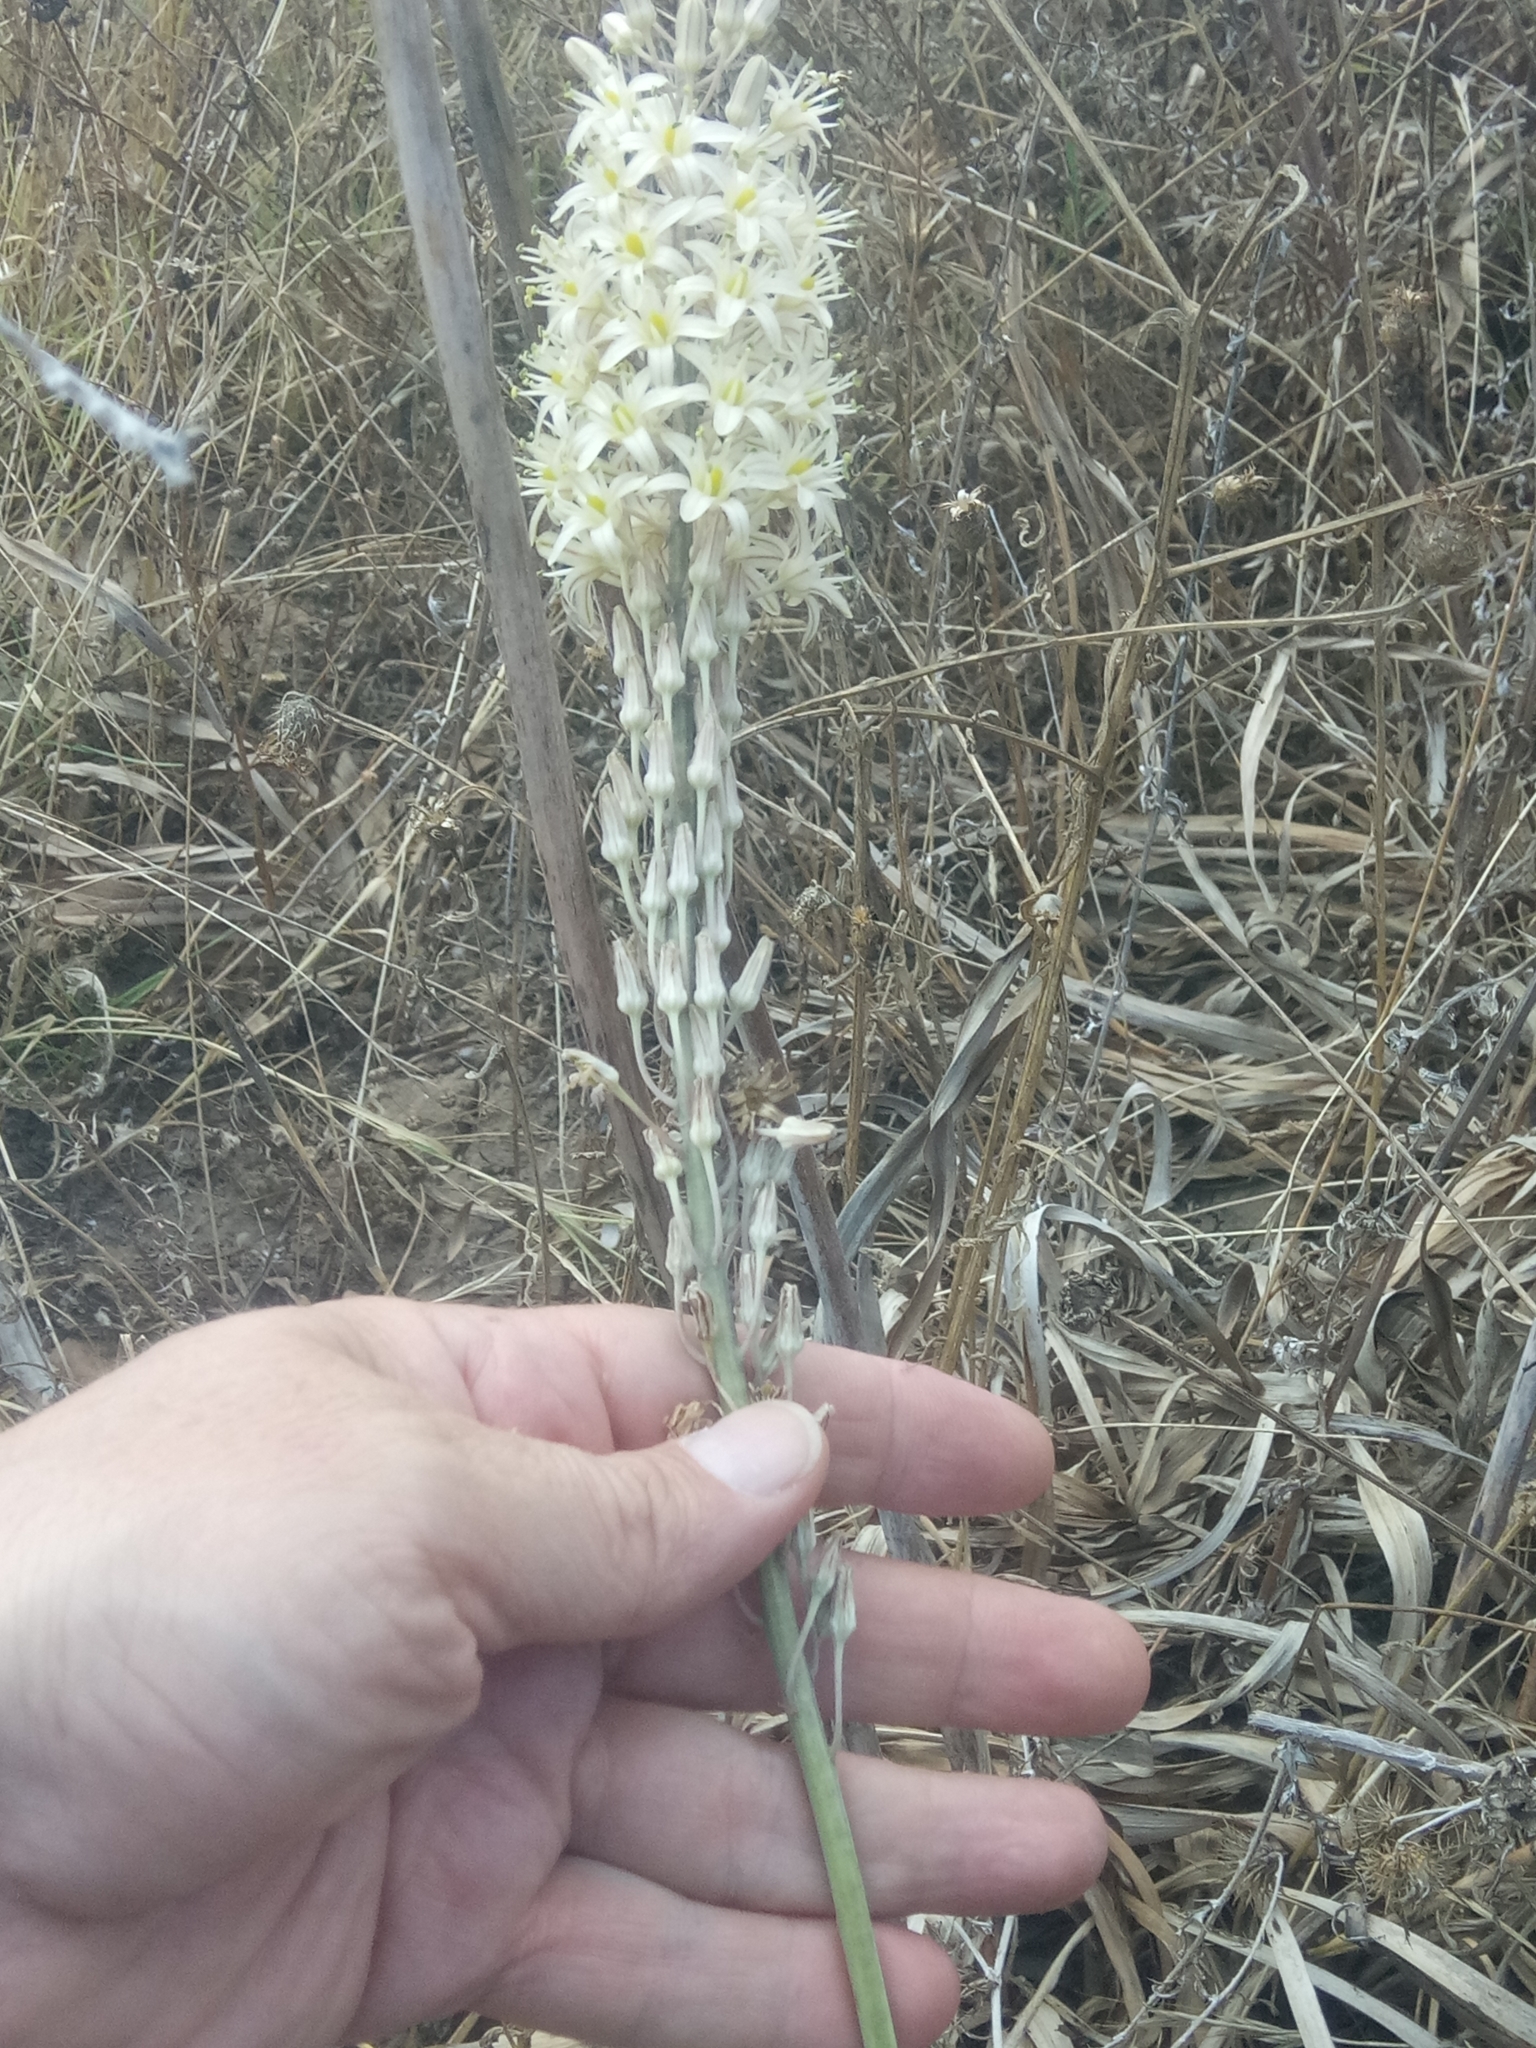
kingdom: Plantae
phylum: Tracheophyta
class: Liliopsida
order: Asparagales
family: Asparagaceae
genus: Drimia
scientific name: Drimia anthericoides
